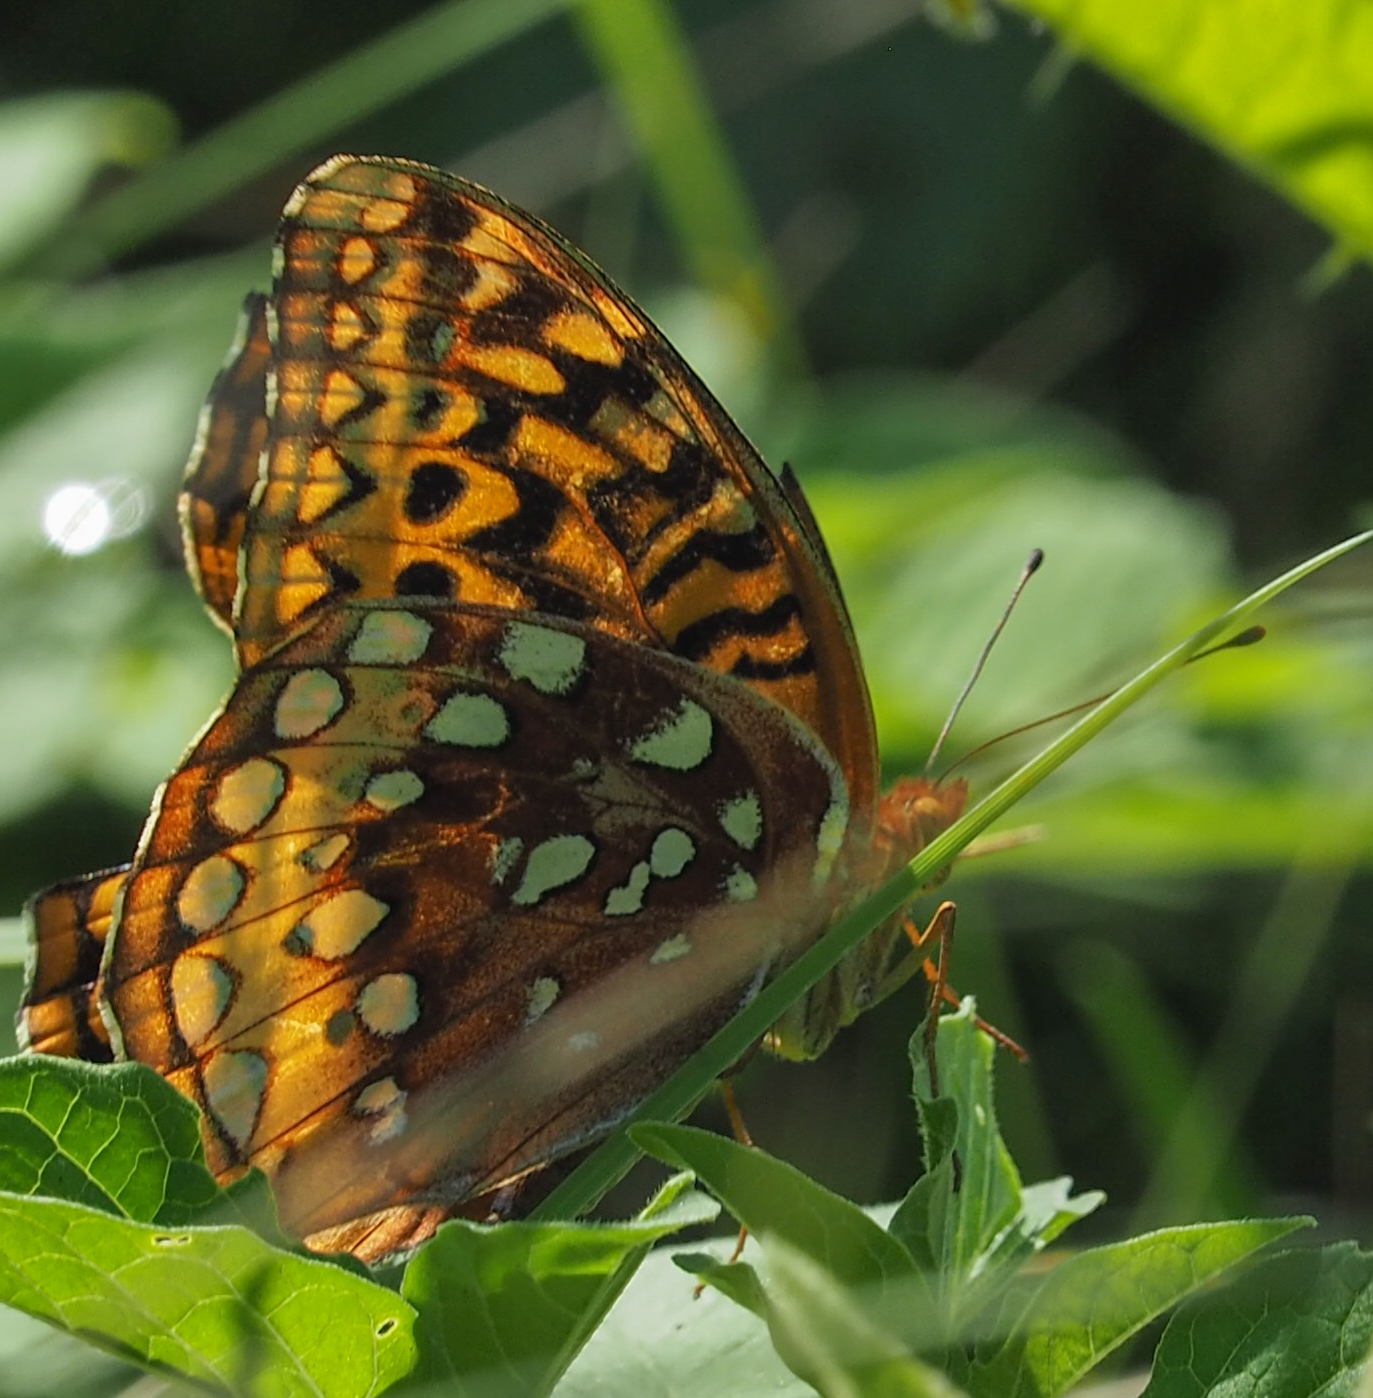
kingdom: Animalia
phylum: Arthropoda
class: Insecta
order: Lepidoptera
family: Nymphalidae
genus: Speyeria
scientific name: Speyeria cybele
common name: Great spangled fritillary
